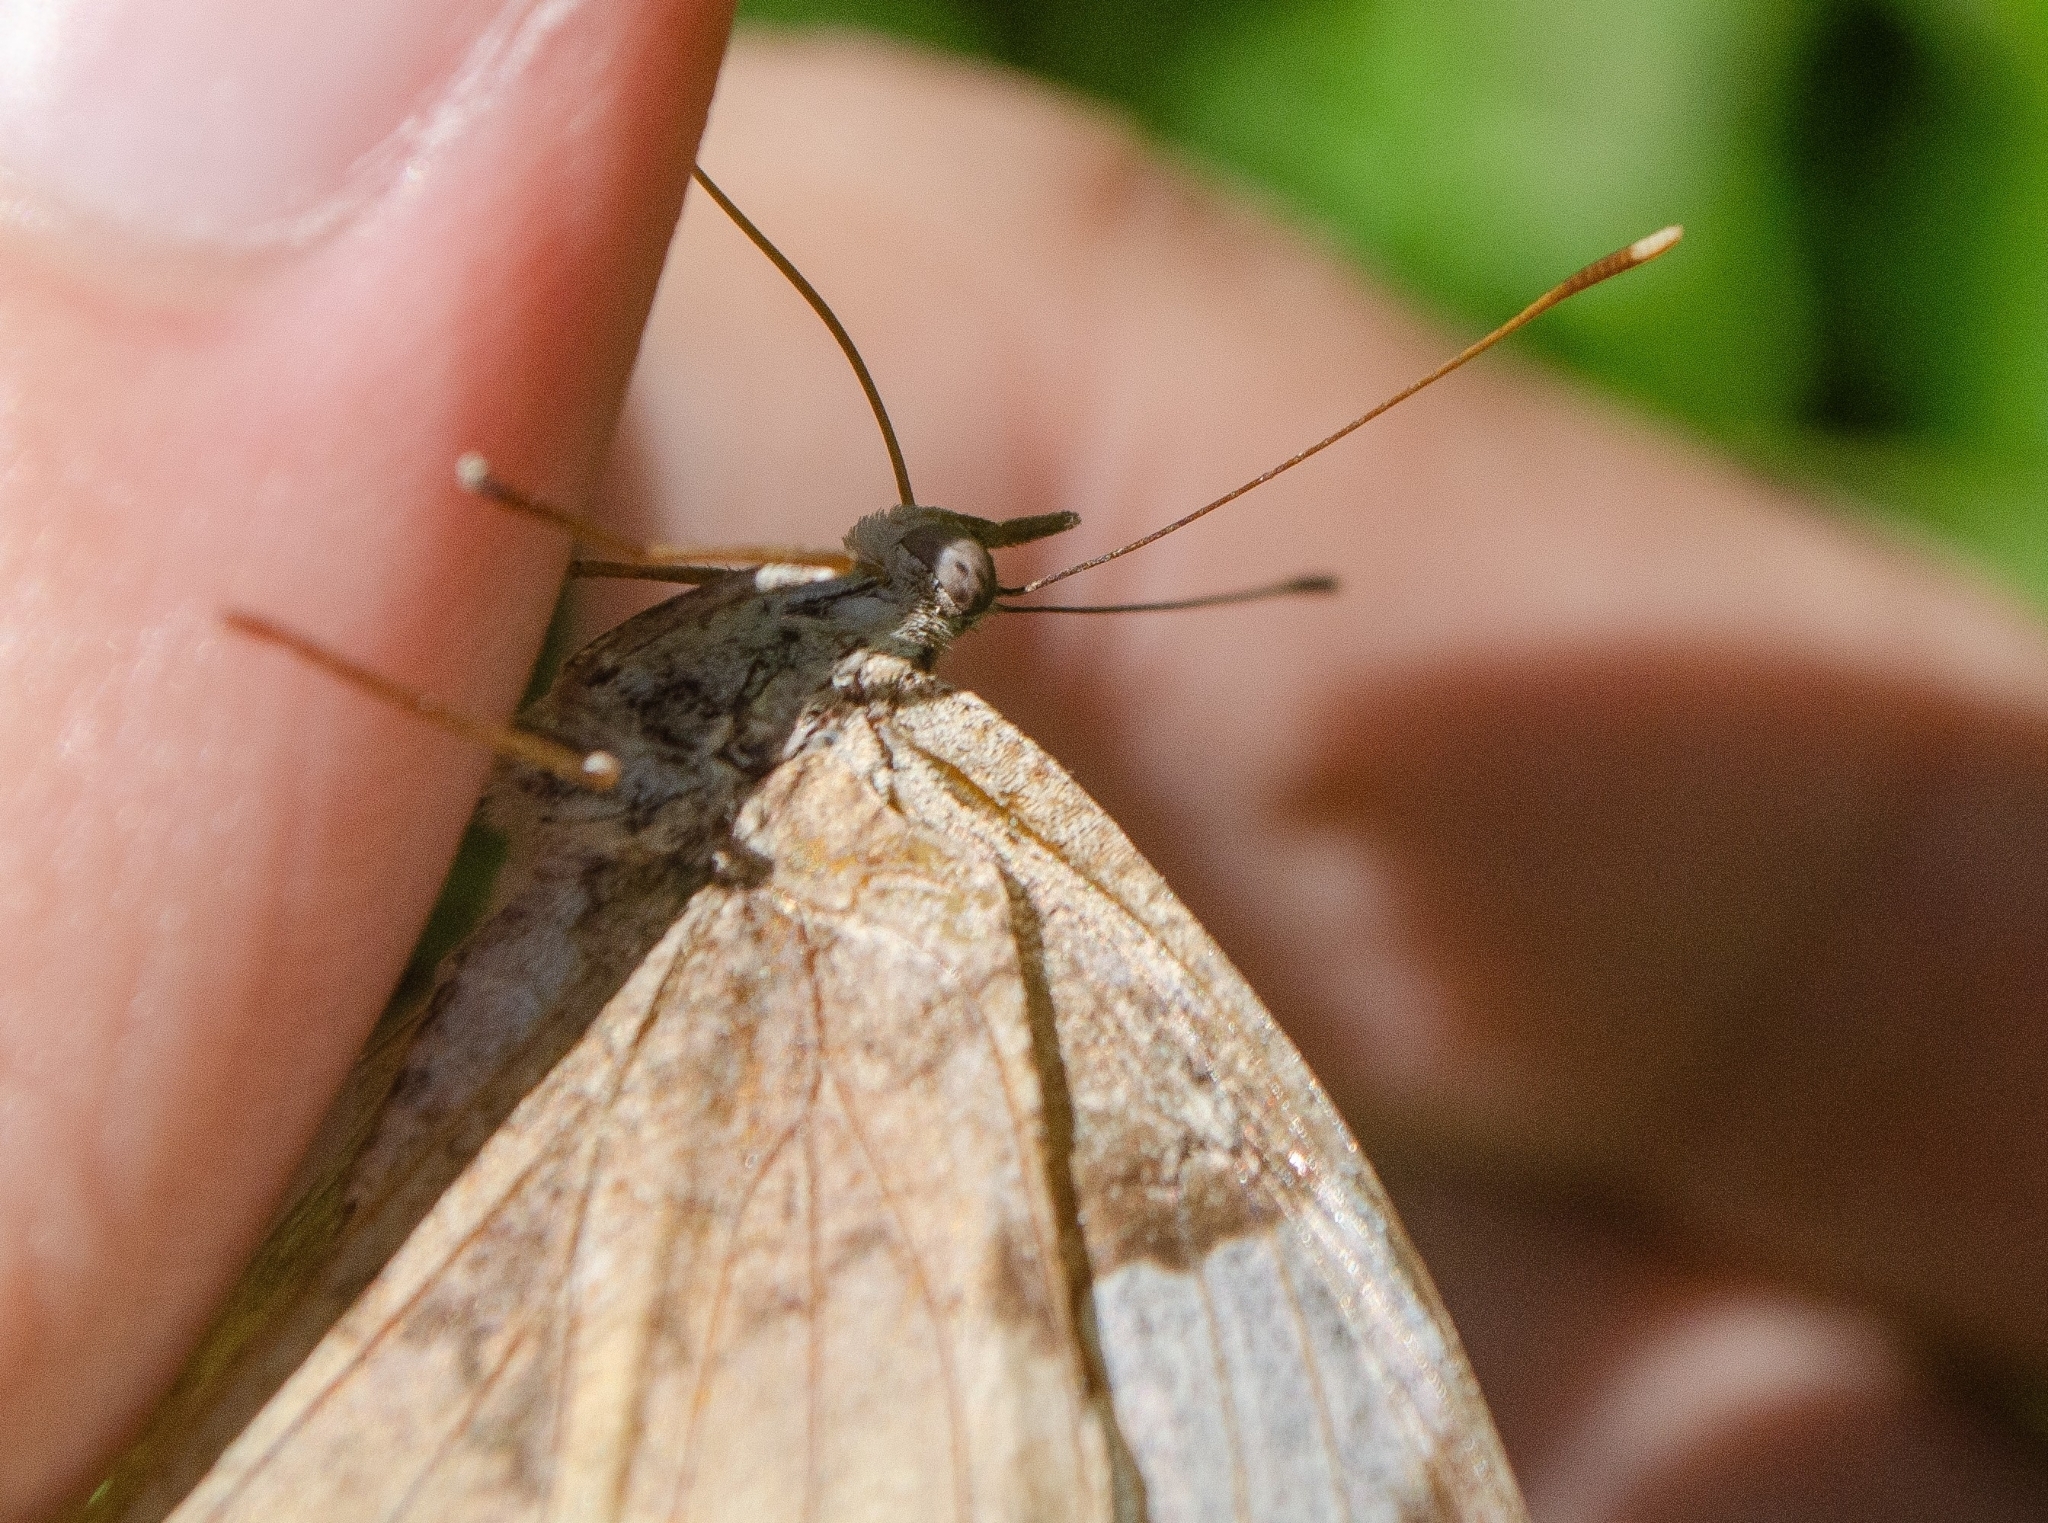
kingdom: Animalia
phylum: Arthropoda
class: Insecta
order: Lepidoptera
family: Nymphalidae
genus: Eunica
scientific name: Eunica eburnea
